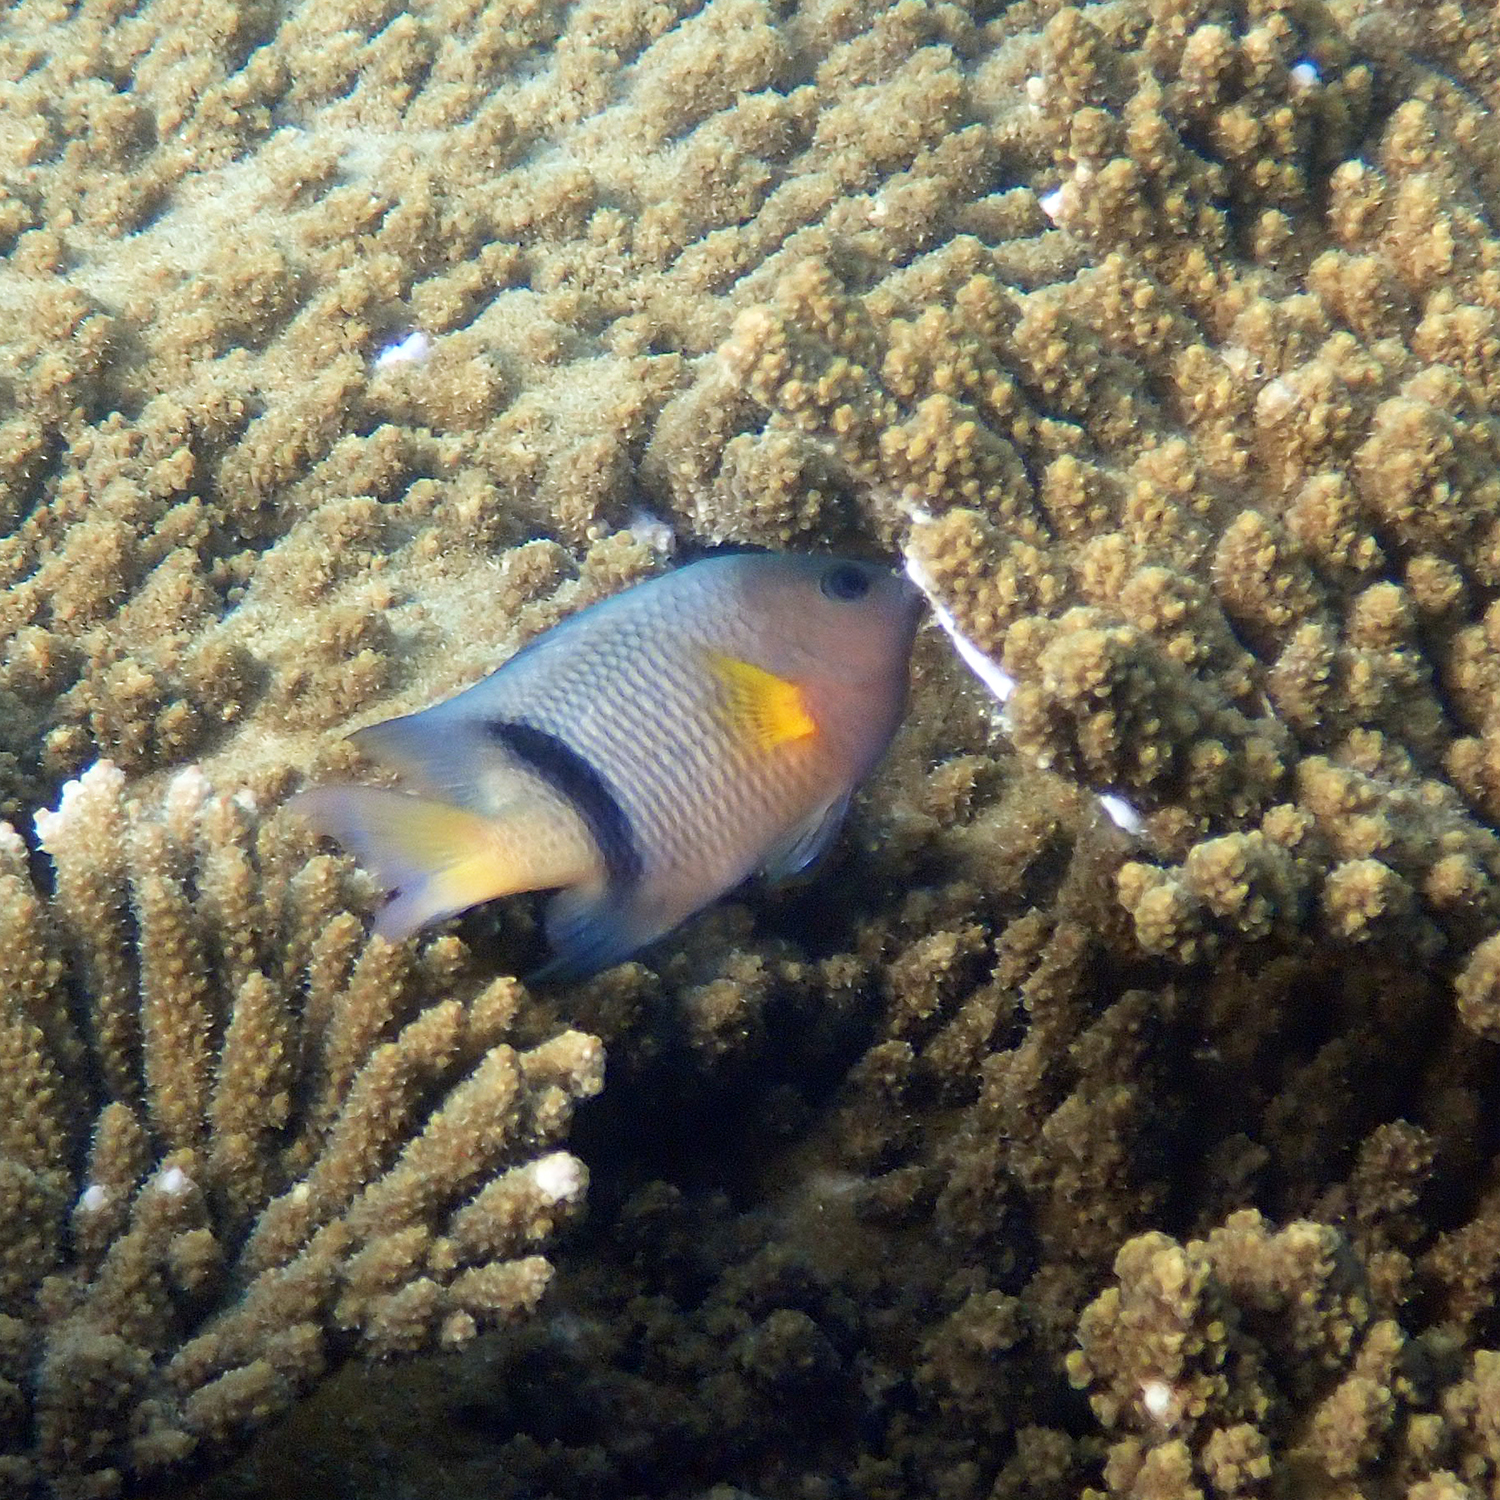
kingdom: Animalia
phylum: Chordata
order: Perciformes
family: Pomacentridae
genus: Plectroglyphidodon
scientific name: Plectroglyphidodon dickii
